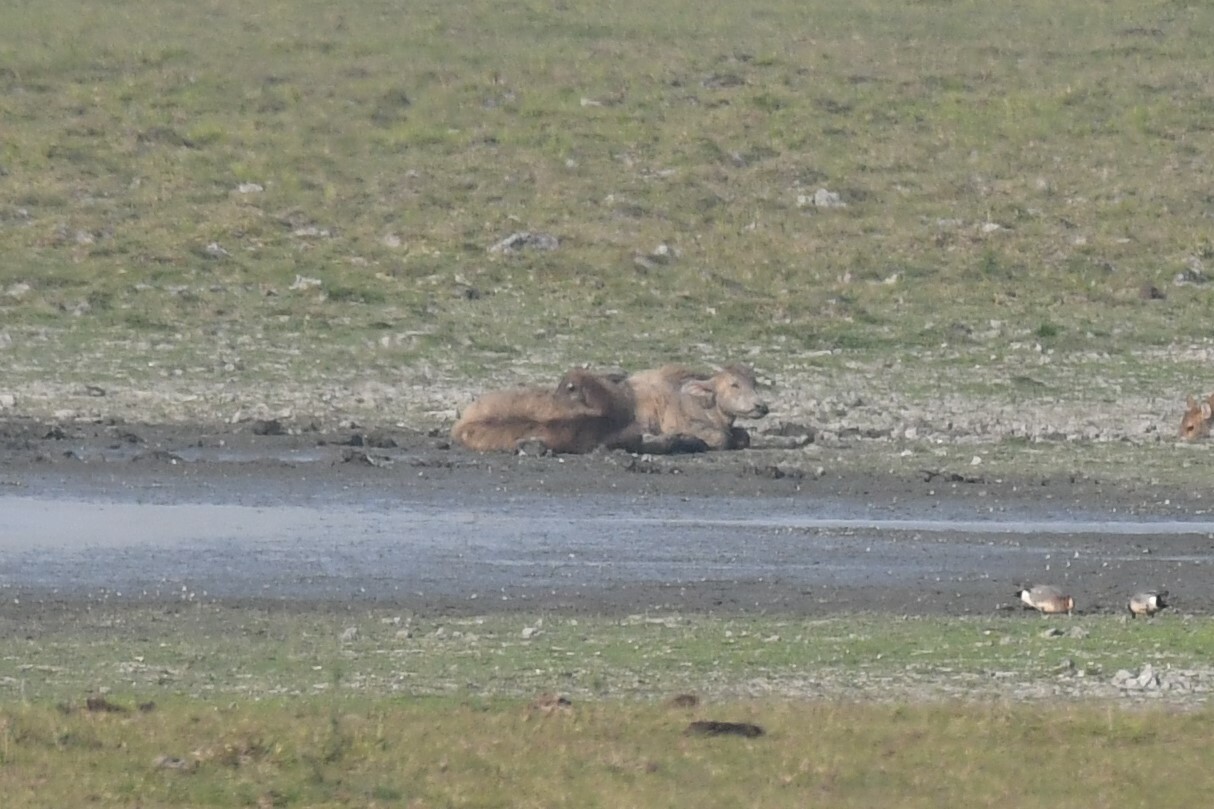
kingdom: Animalia
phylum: Chordata
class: Mammalia
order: Artiodactyla
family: Bovidae
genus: Bubalus
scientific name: Bubalus bubalis
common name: Water buffalo
